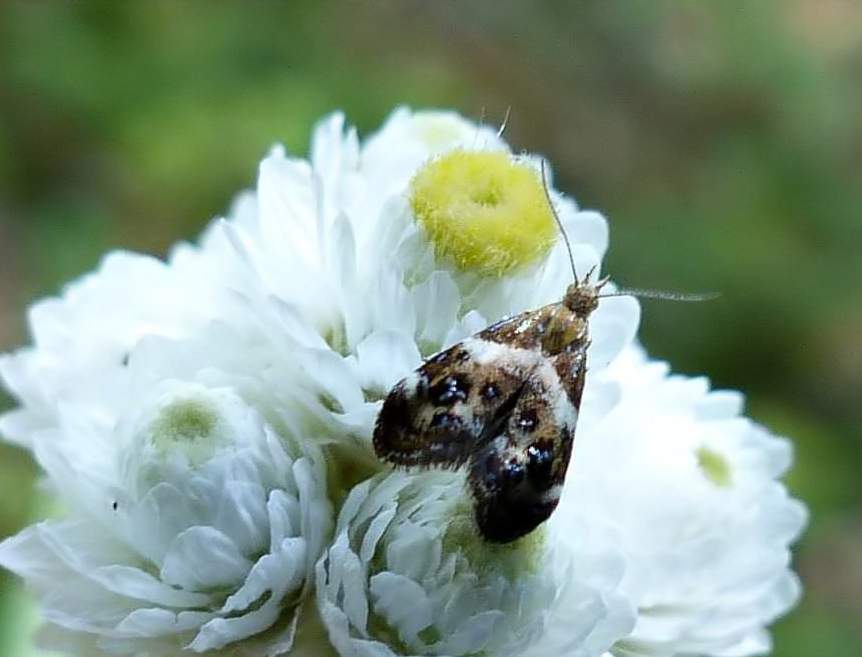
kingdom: Animalia
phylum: Arthropoda
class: Insecta
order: Lepidoptera
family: Choreutidae
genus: Tebenna
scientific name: Tebenna onustana
